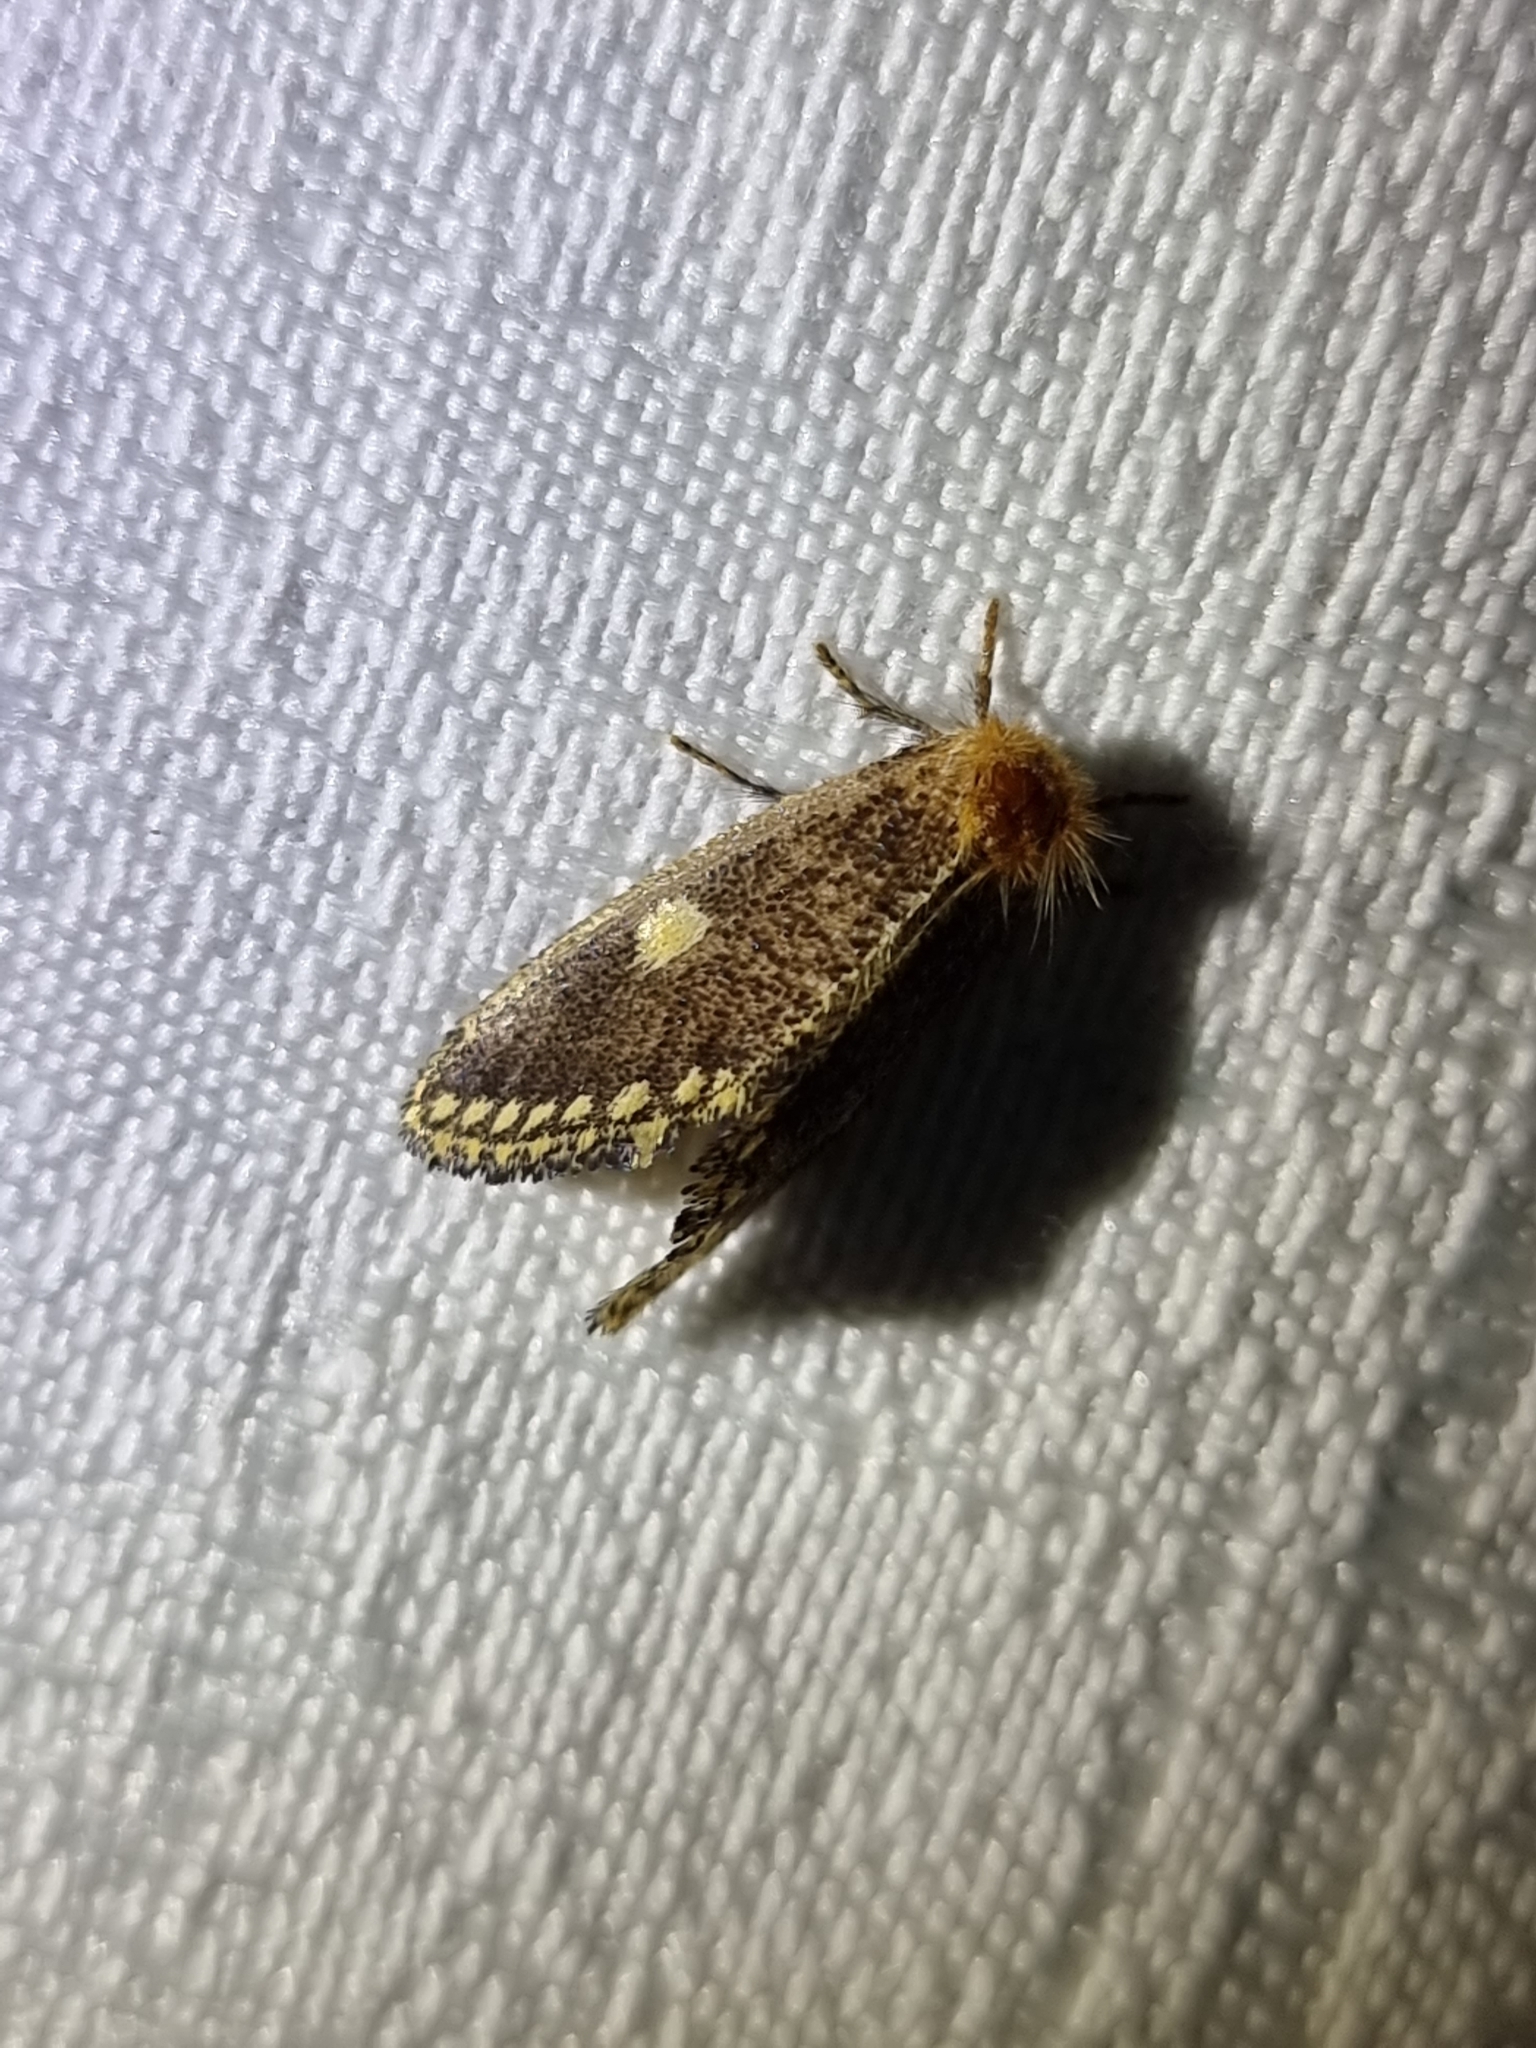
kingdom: Animalia
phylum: Arthropoda
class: Insecta
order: Lepidoptera
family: Notodontidae
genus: Epicoma
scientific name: Epicoma protrahens
